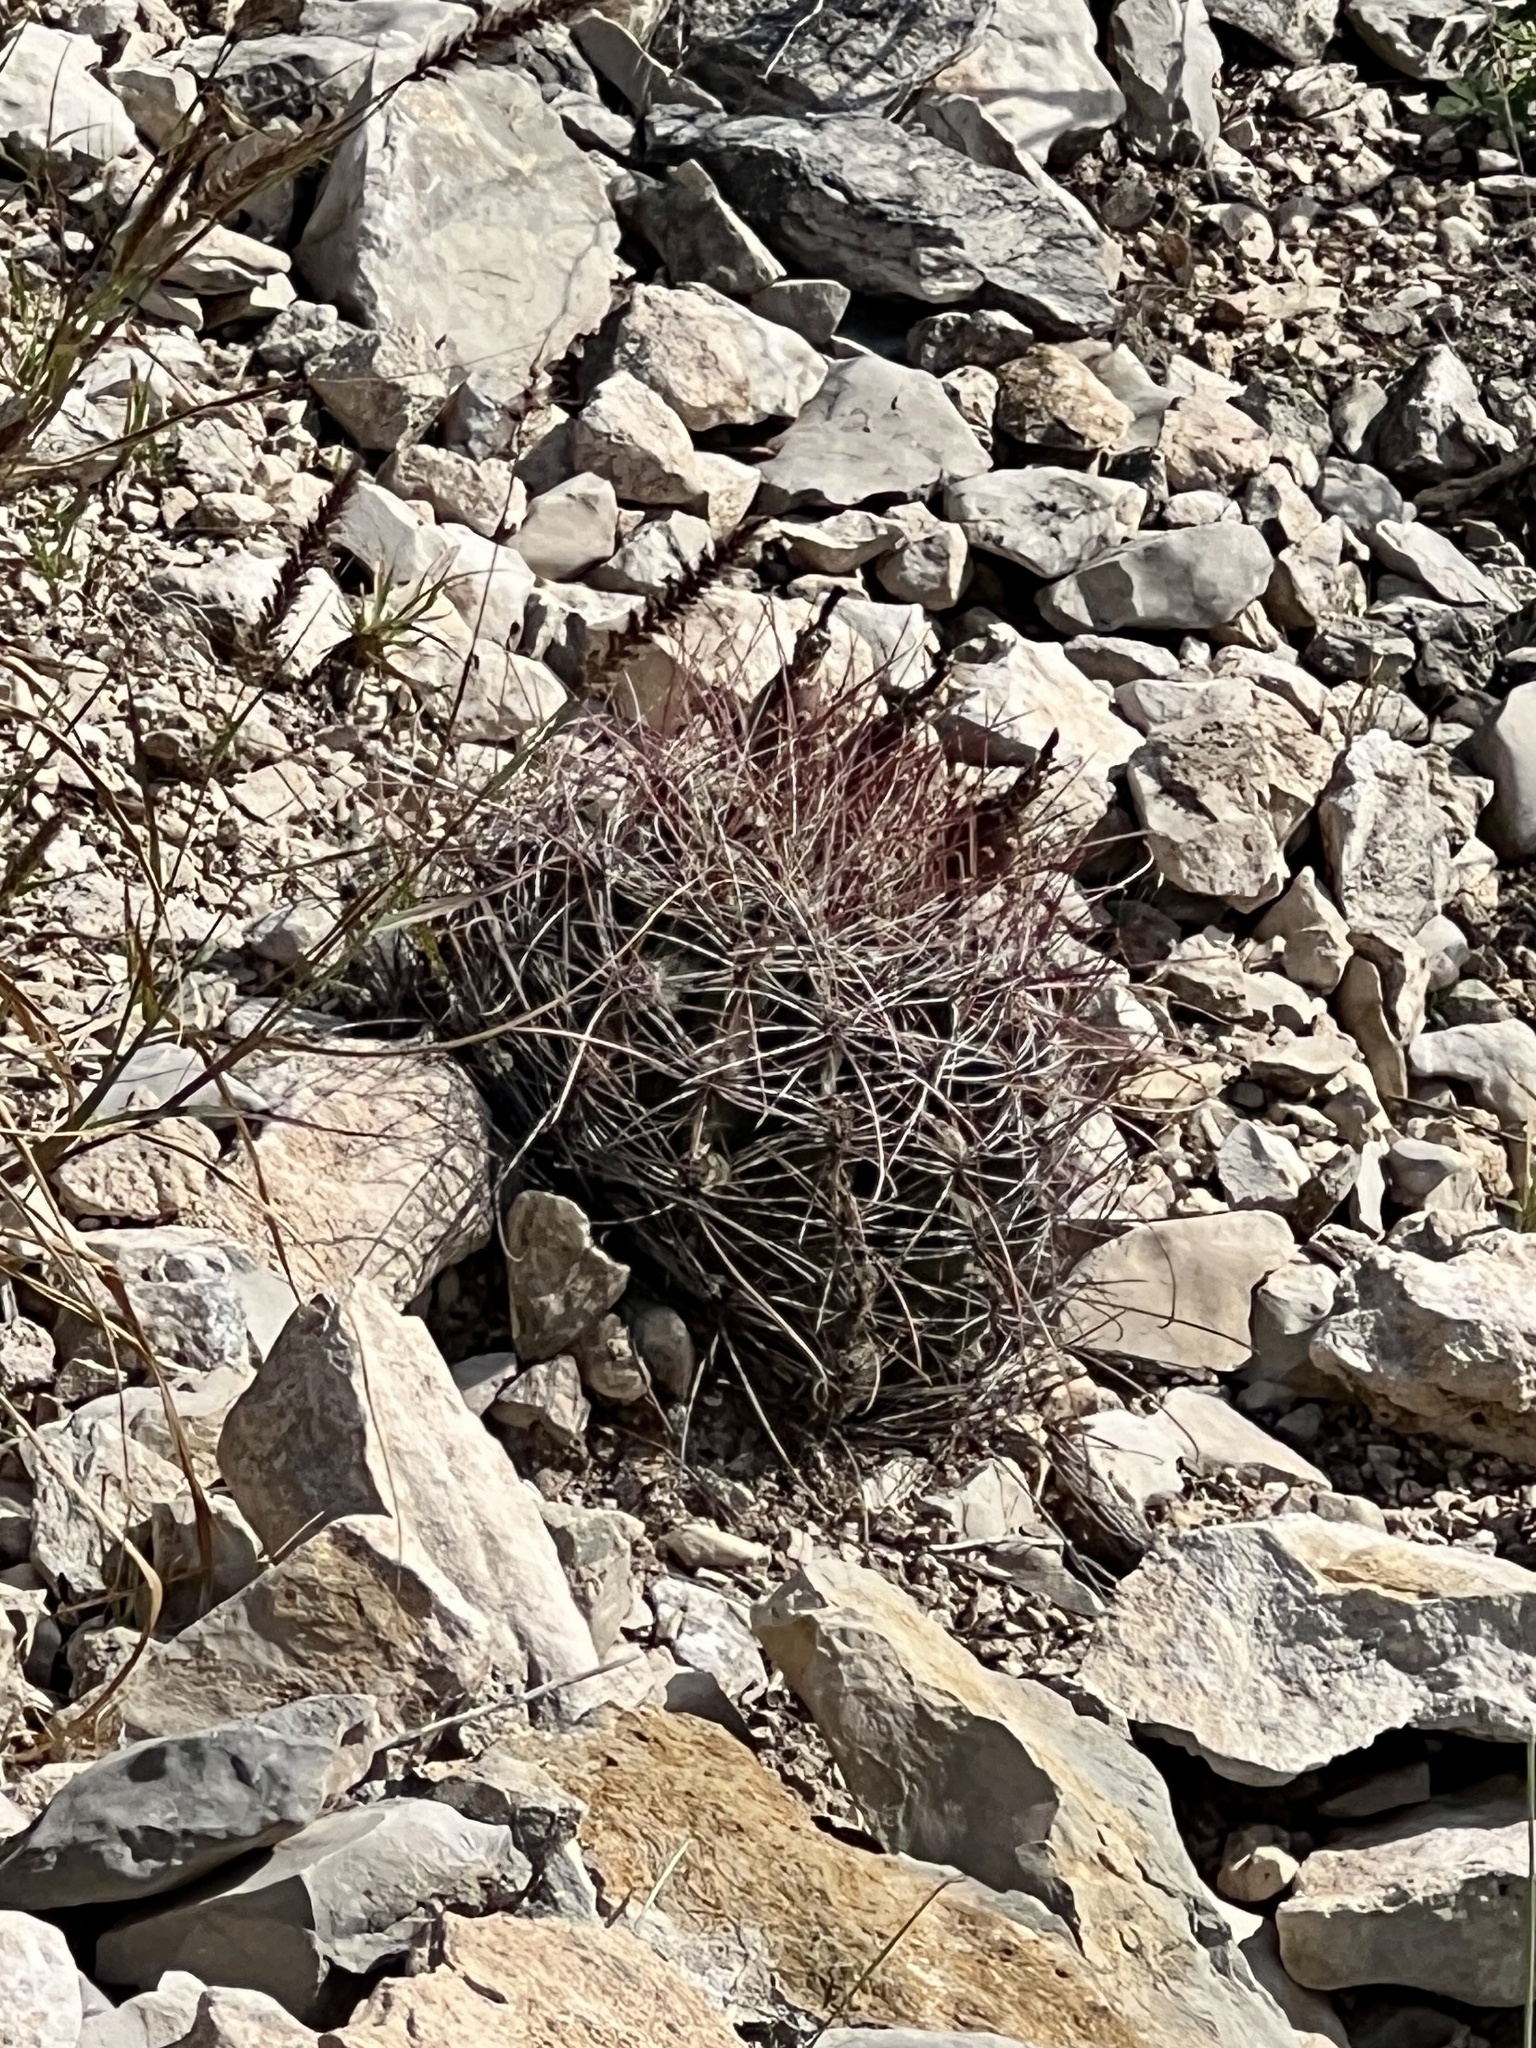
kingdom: Plantae
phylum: Tracheophyta
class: Magnoliopsida
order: Caryophyllales
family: Cactaceae
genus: Bisnaga
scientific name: Bisnaga hamatacantha
